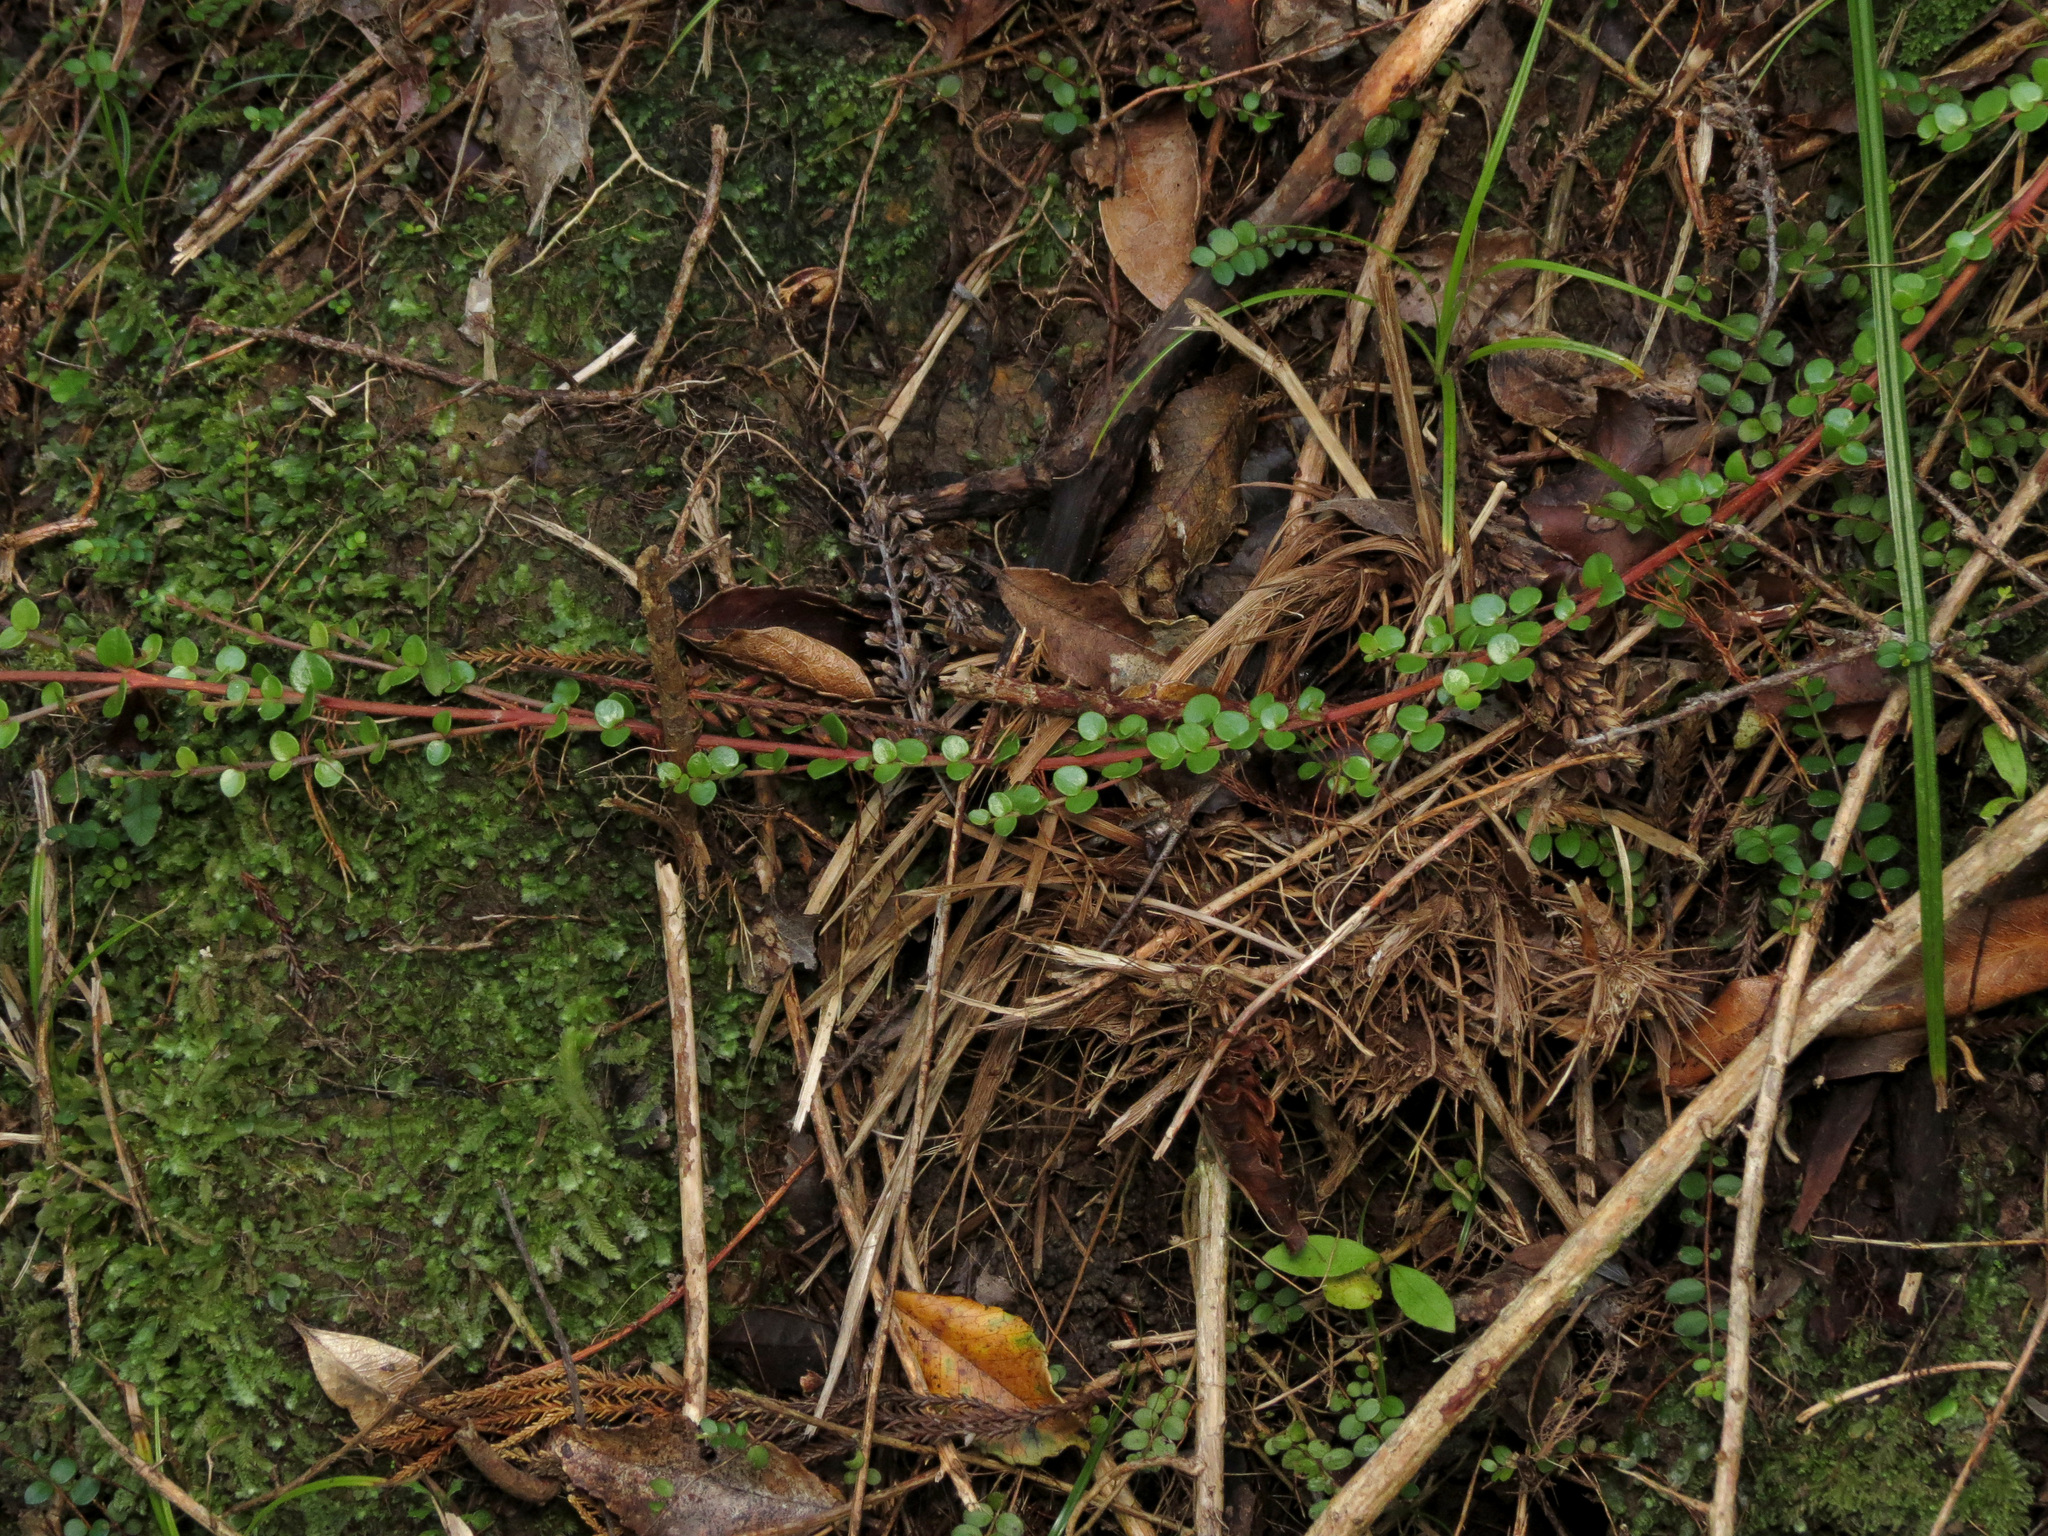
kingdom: Plantae
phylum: Tracheophyta
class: Magnoliopsida
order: Myrtales
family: Myrtaceae
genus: Metrosideros
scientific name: Metrosideros perforata
